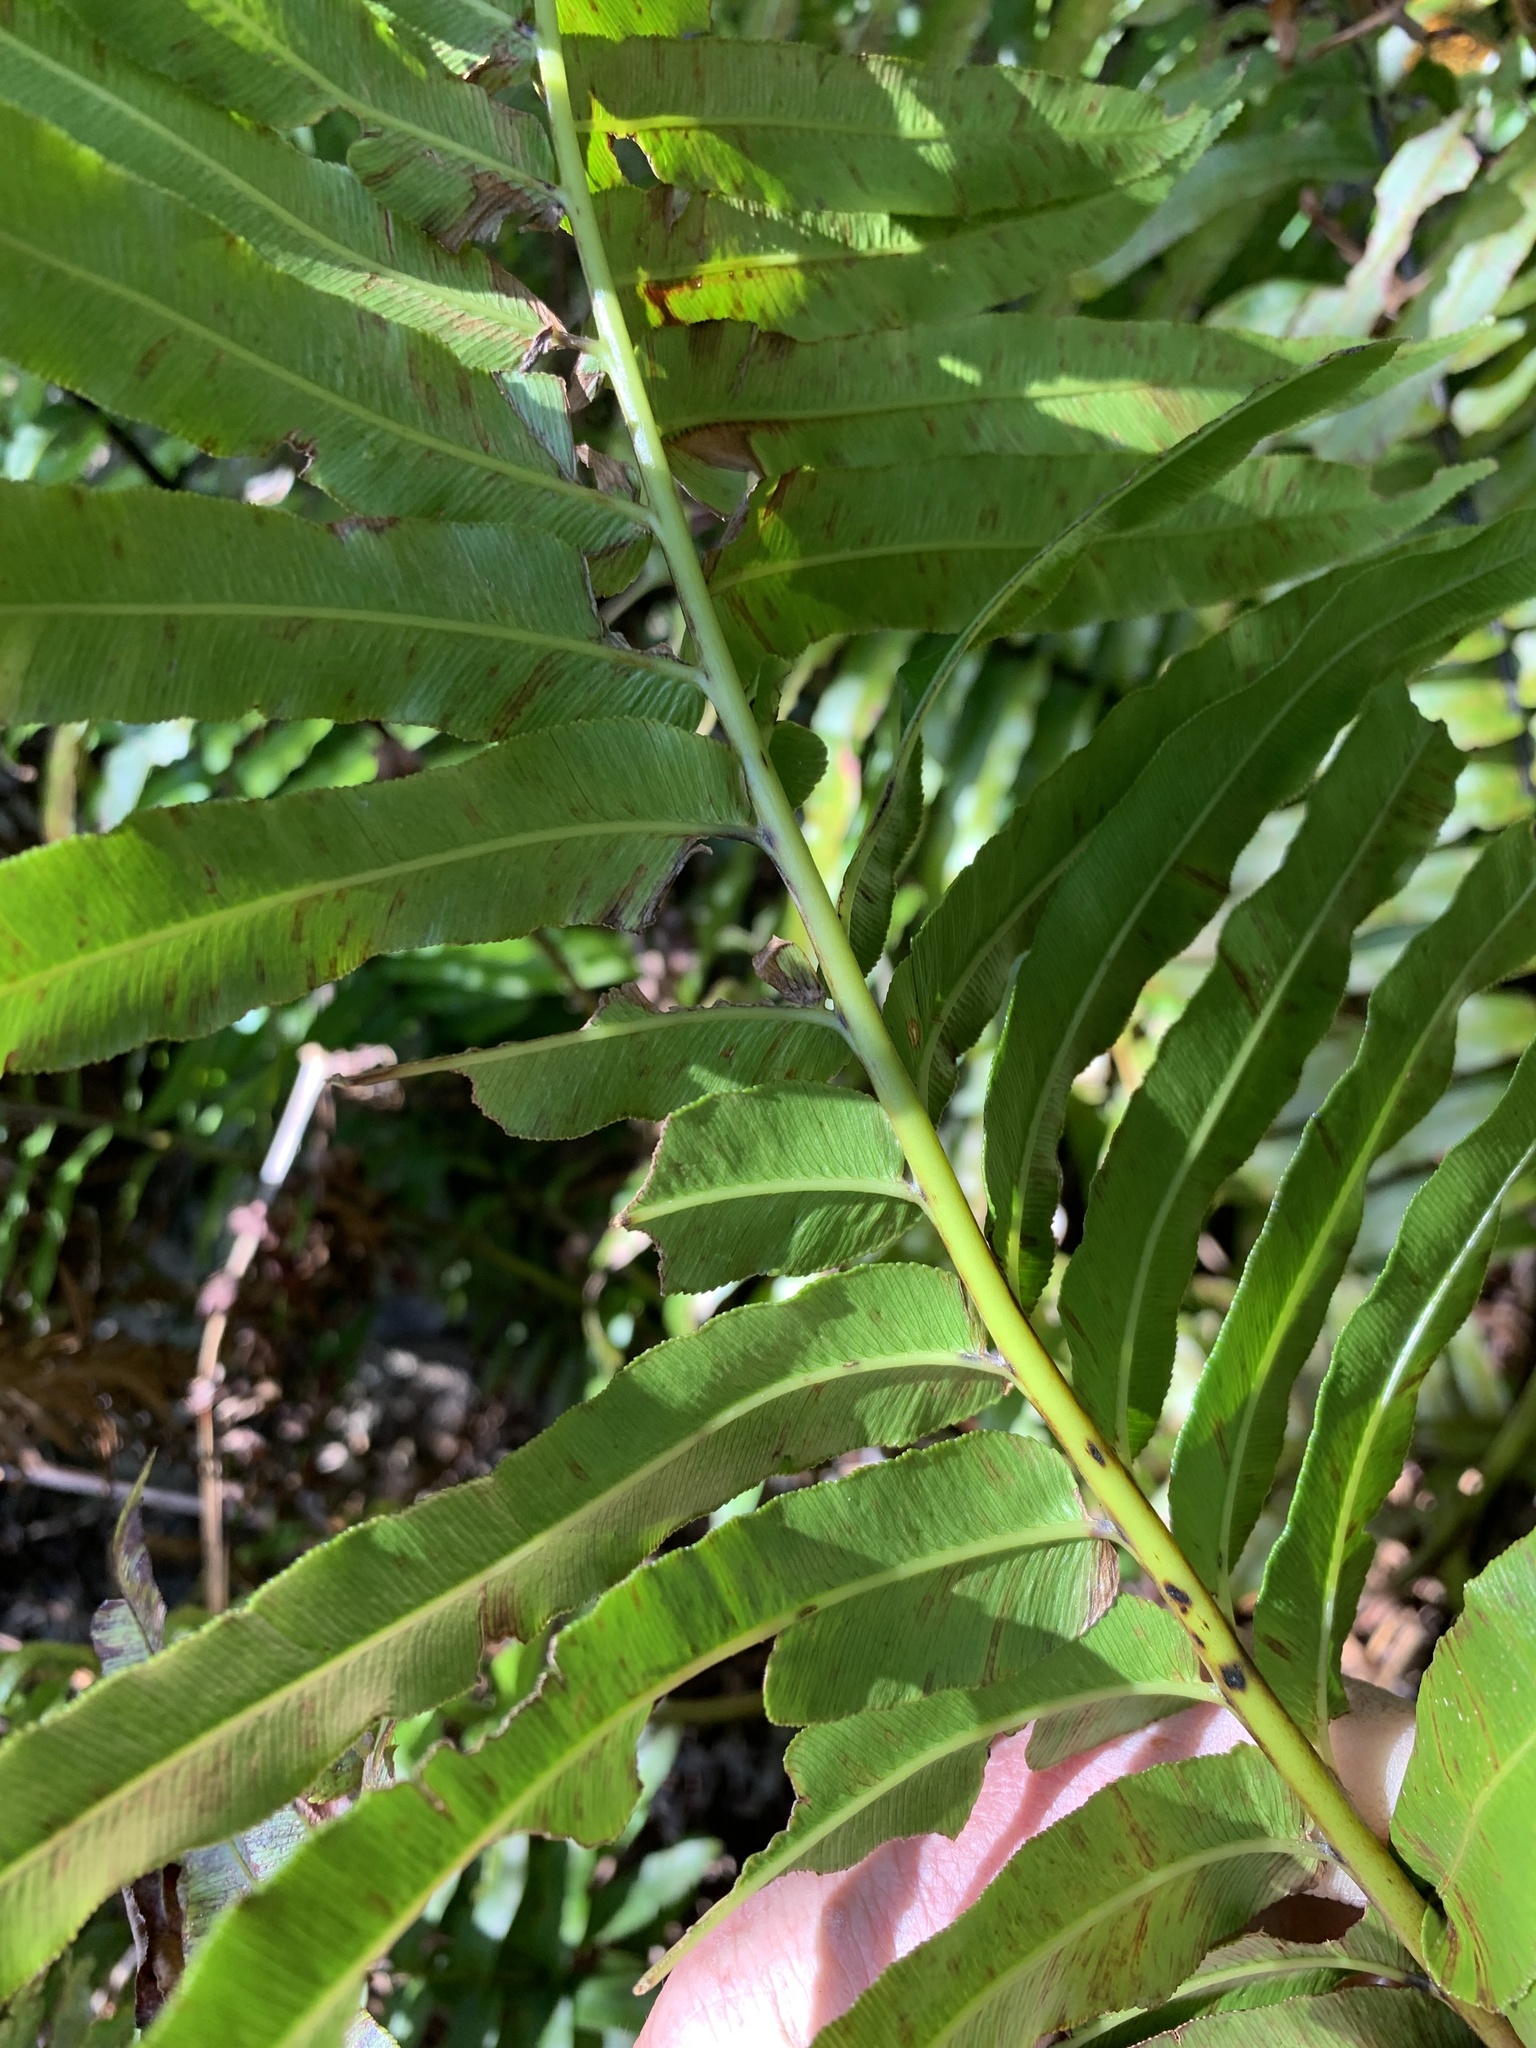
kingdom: Plantae
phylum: Tracheophyta
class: Polypodiopsida
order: Polypodiales
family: Blechnaceae
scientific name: Blechnaceae
